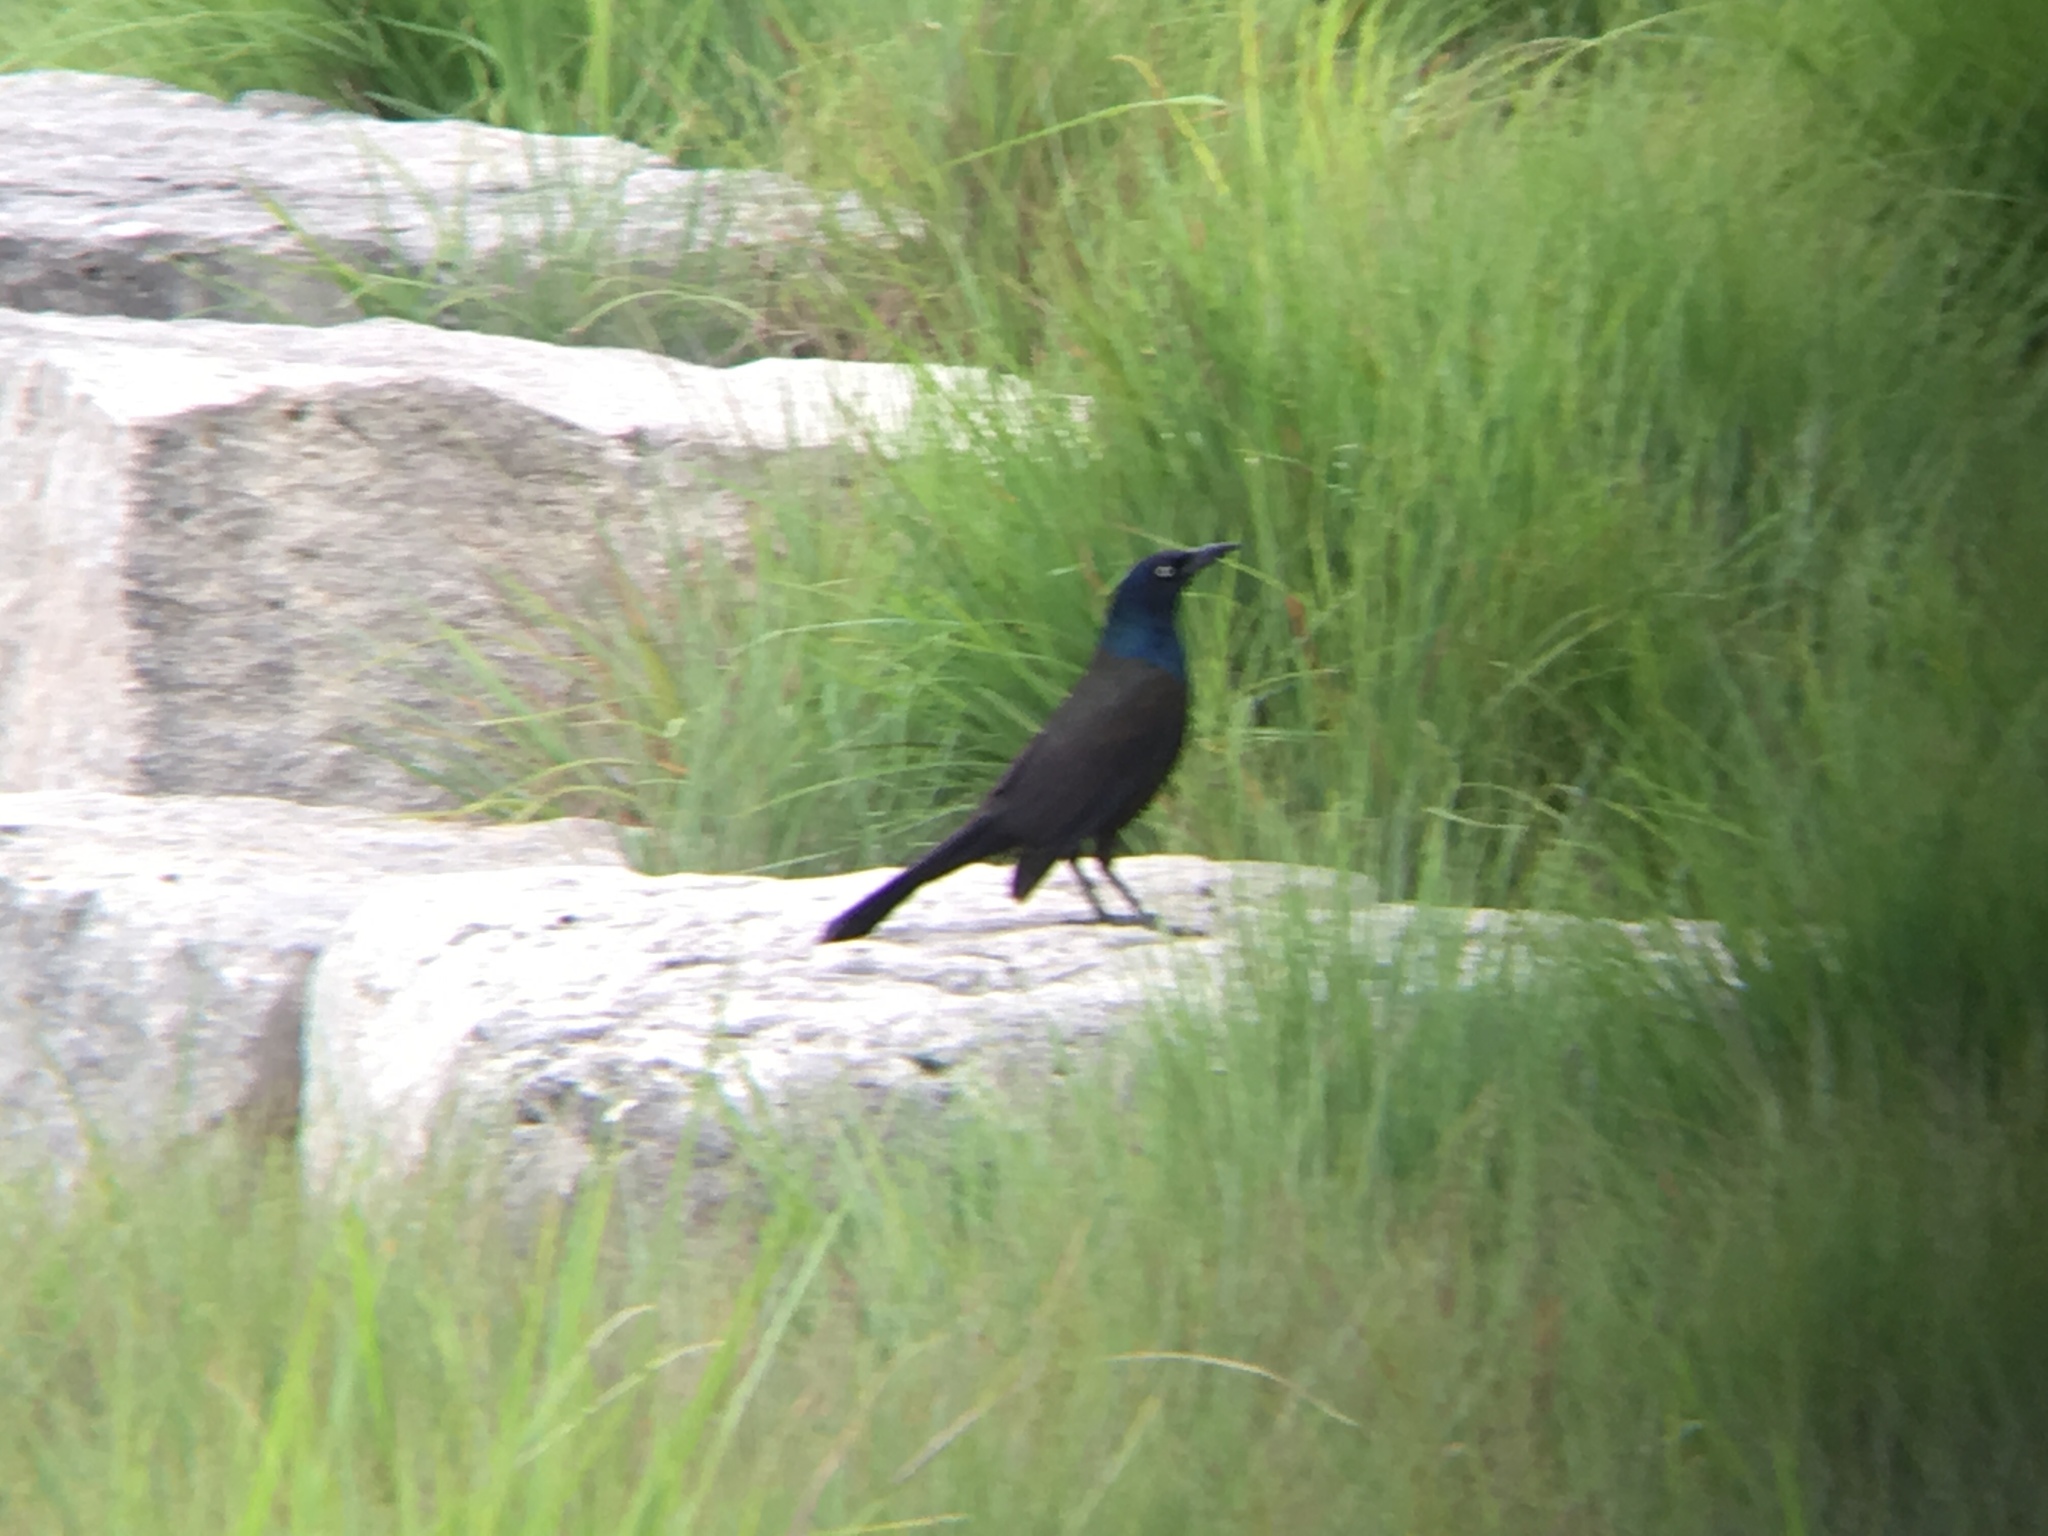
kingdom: Animalia
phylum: Chordata
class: Aves
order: Passeriformes
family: Icteridae
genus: Quiscalus
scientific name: Quiscalus quiscula
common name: Common grackle
